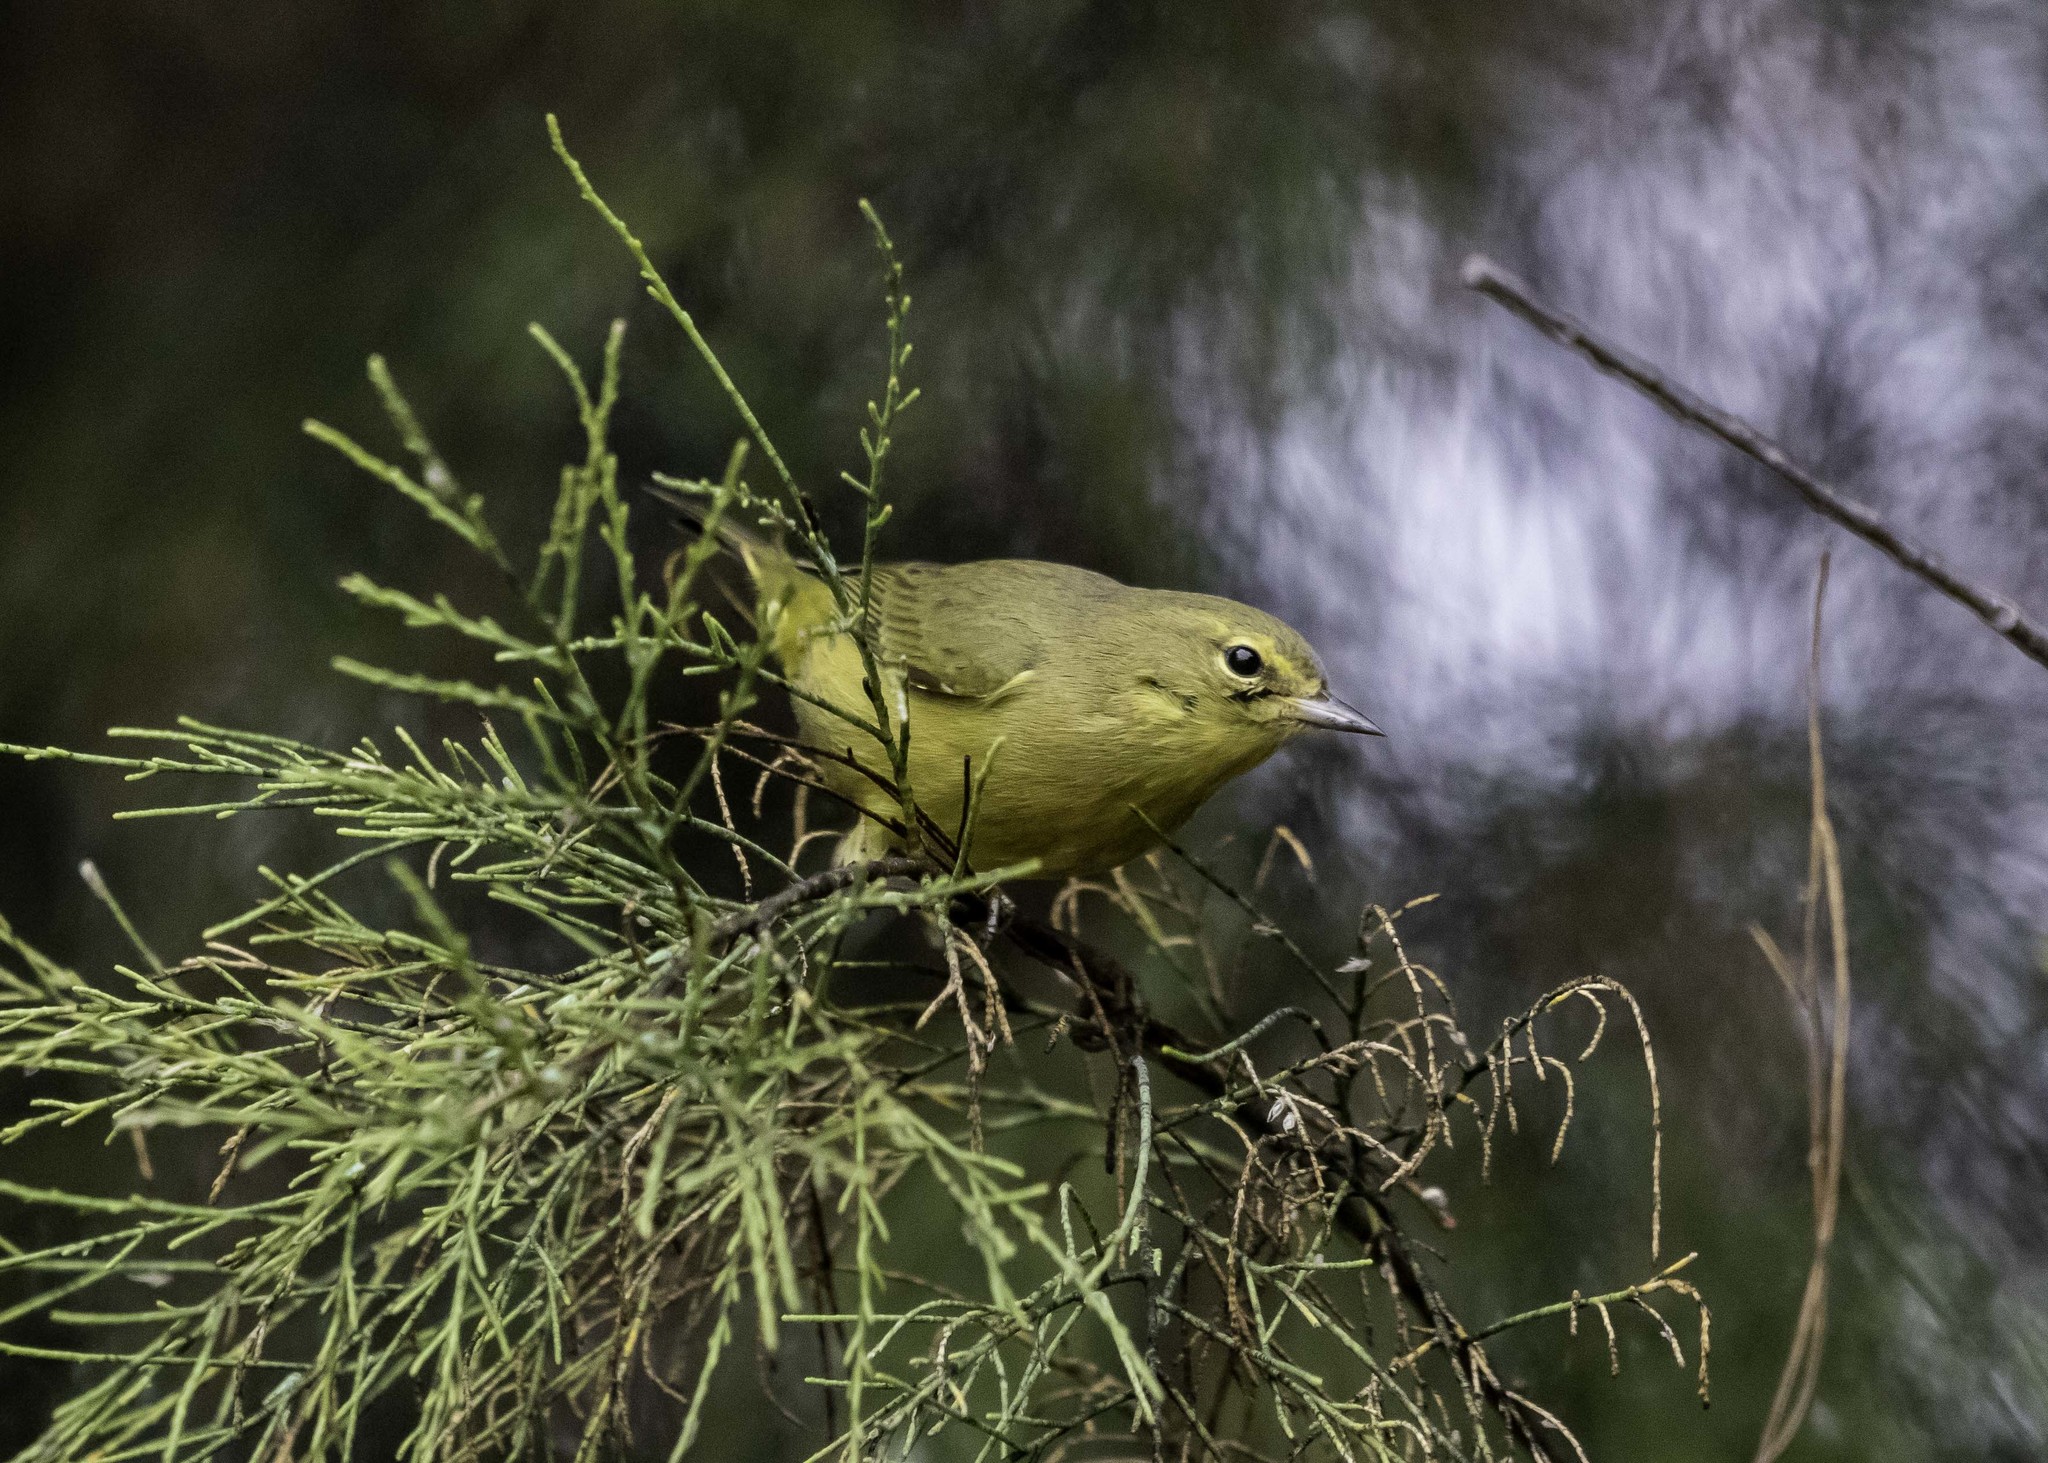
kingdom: Animalia
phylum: Chordata
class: Aves
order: Passeriformes
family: Parulidae
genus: Leiothlypis
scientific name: Leiothlypis celata
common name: Orange-crowned warbler
